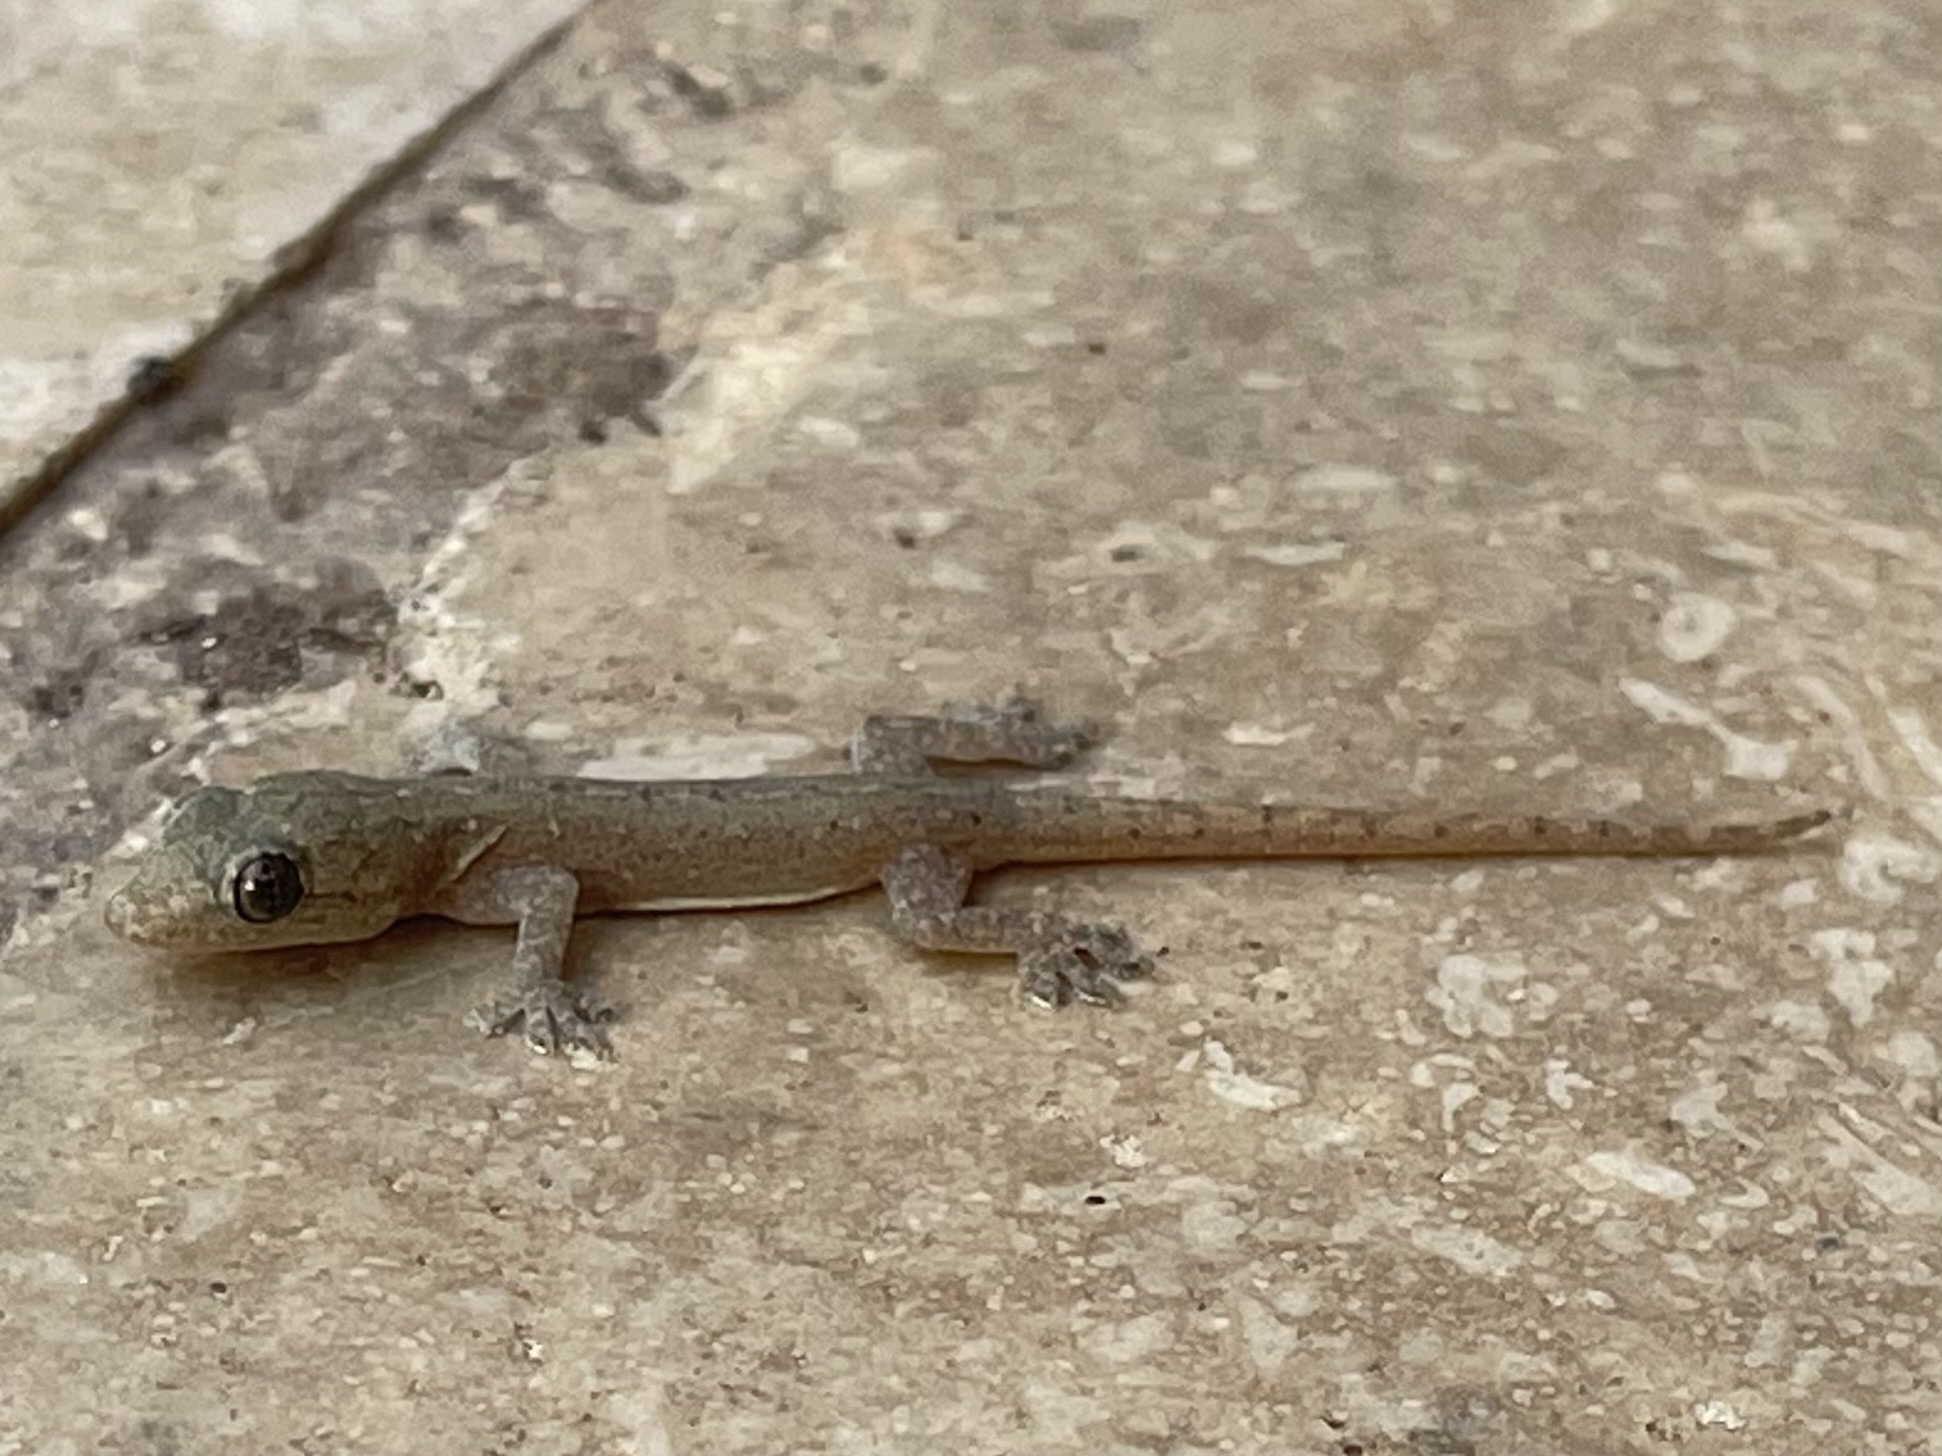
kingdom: Animalia
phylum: Chordata
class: Squamata
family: Gekkonidae
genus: Hemidactylus
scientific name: Hemidactylus frenatus
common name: Common house gecko
